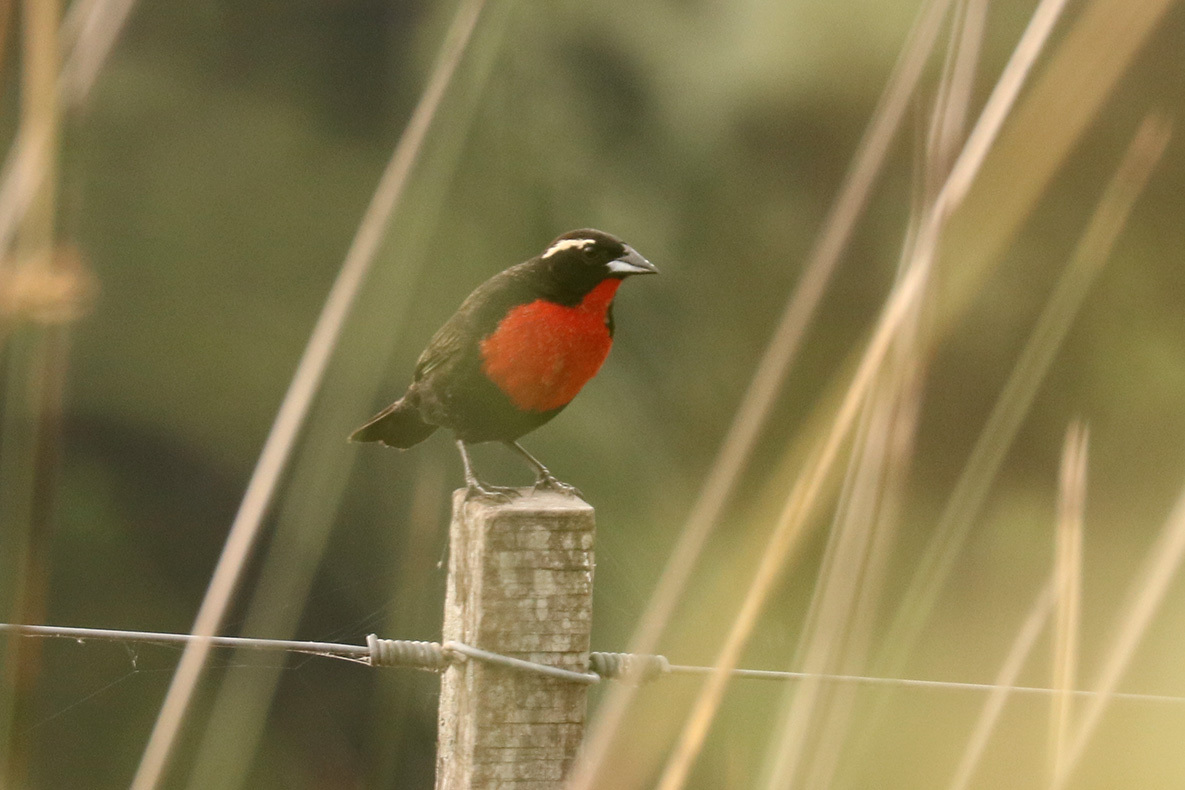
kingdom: Animalia
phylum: Chordata
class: Aves
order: Passeriformes
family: Icteridae
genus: Sturnella
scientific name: Sturnella superciliaris
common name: White-browed blackbird
